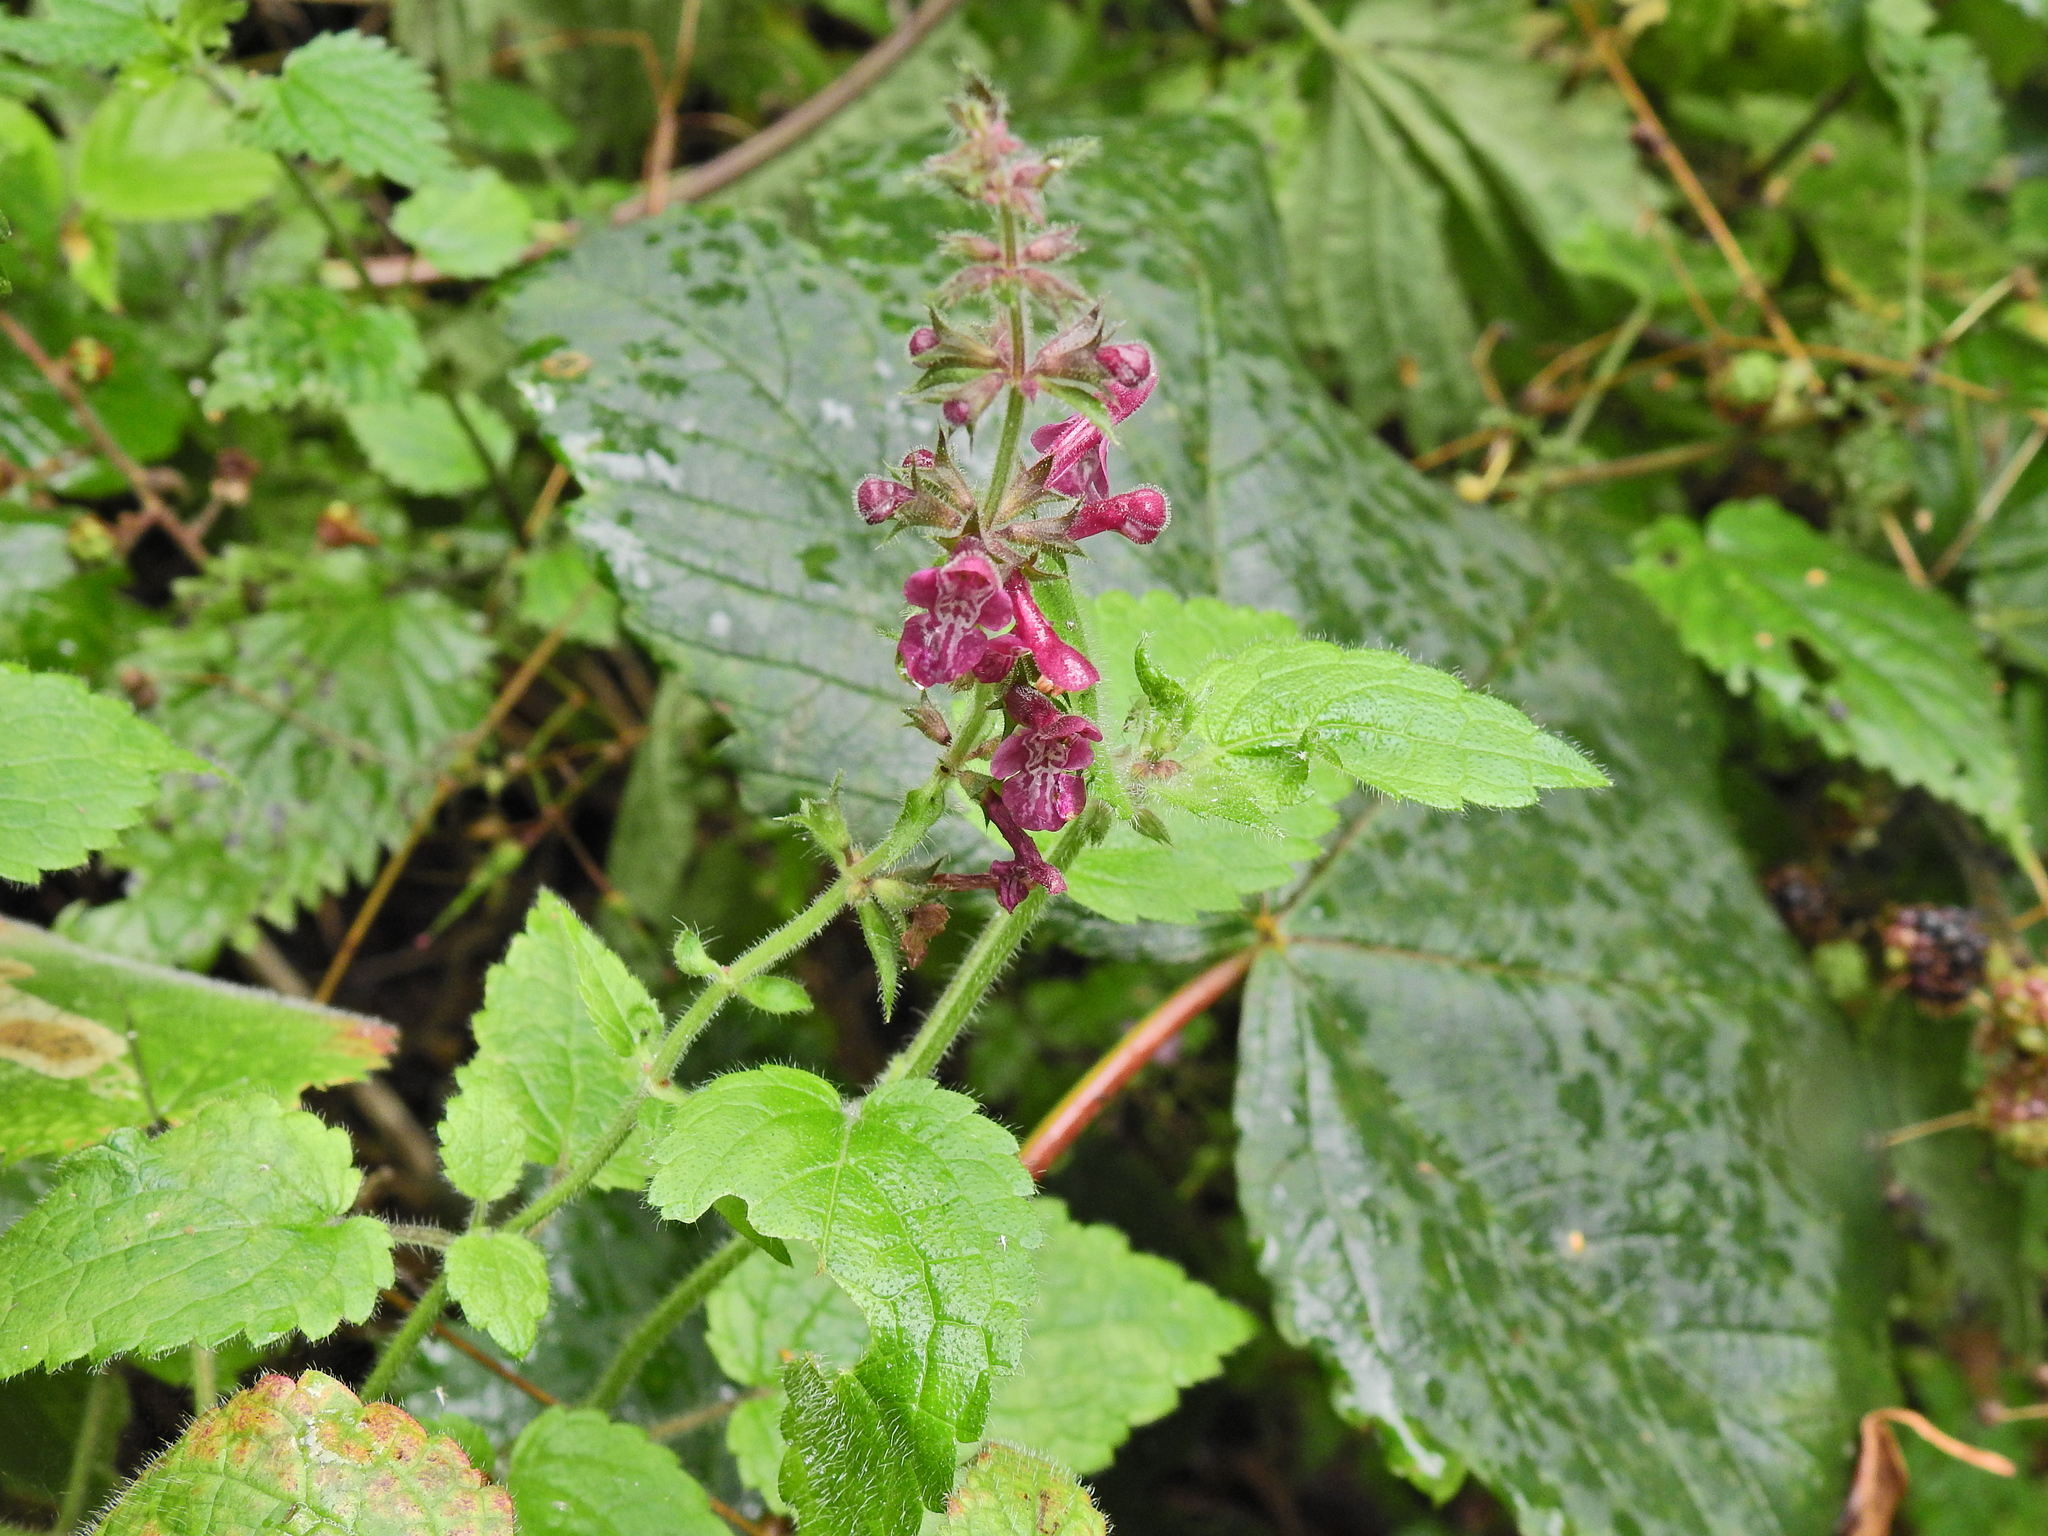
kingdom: Plantae
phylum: Tracheophyta
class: Magnoliopsida
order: Lamiales
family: Lamiaceae
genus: Stachys
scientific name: Stachys sylvatica
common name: Hedge woundwort
